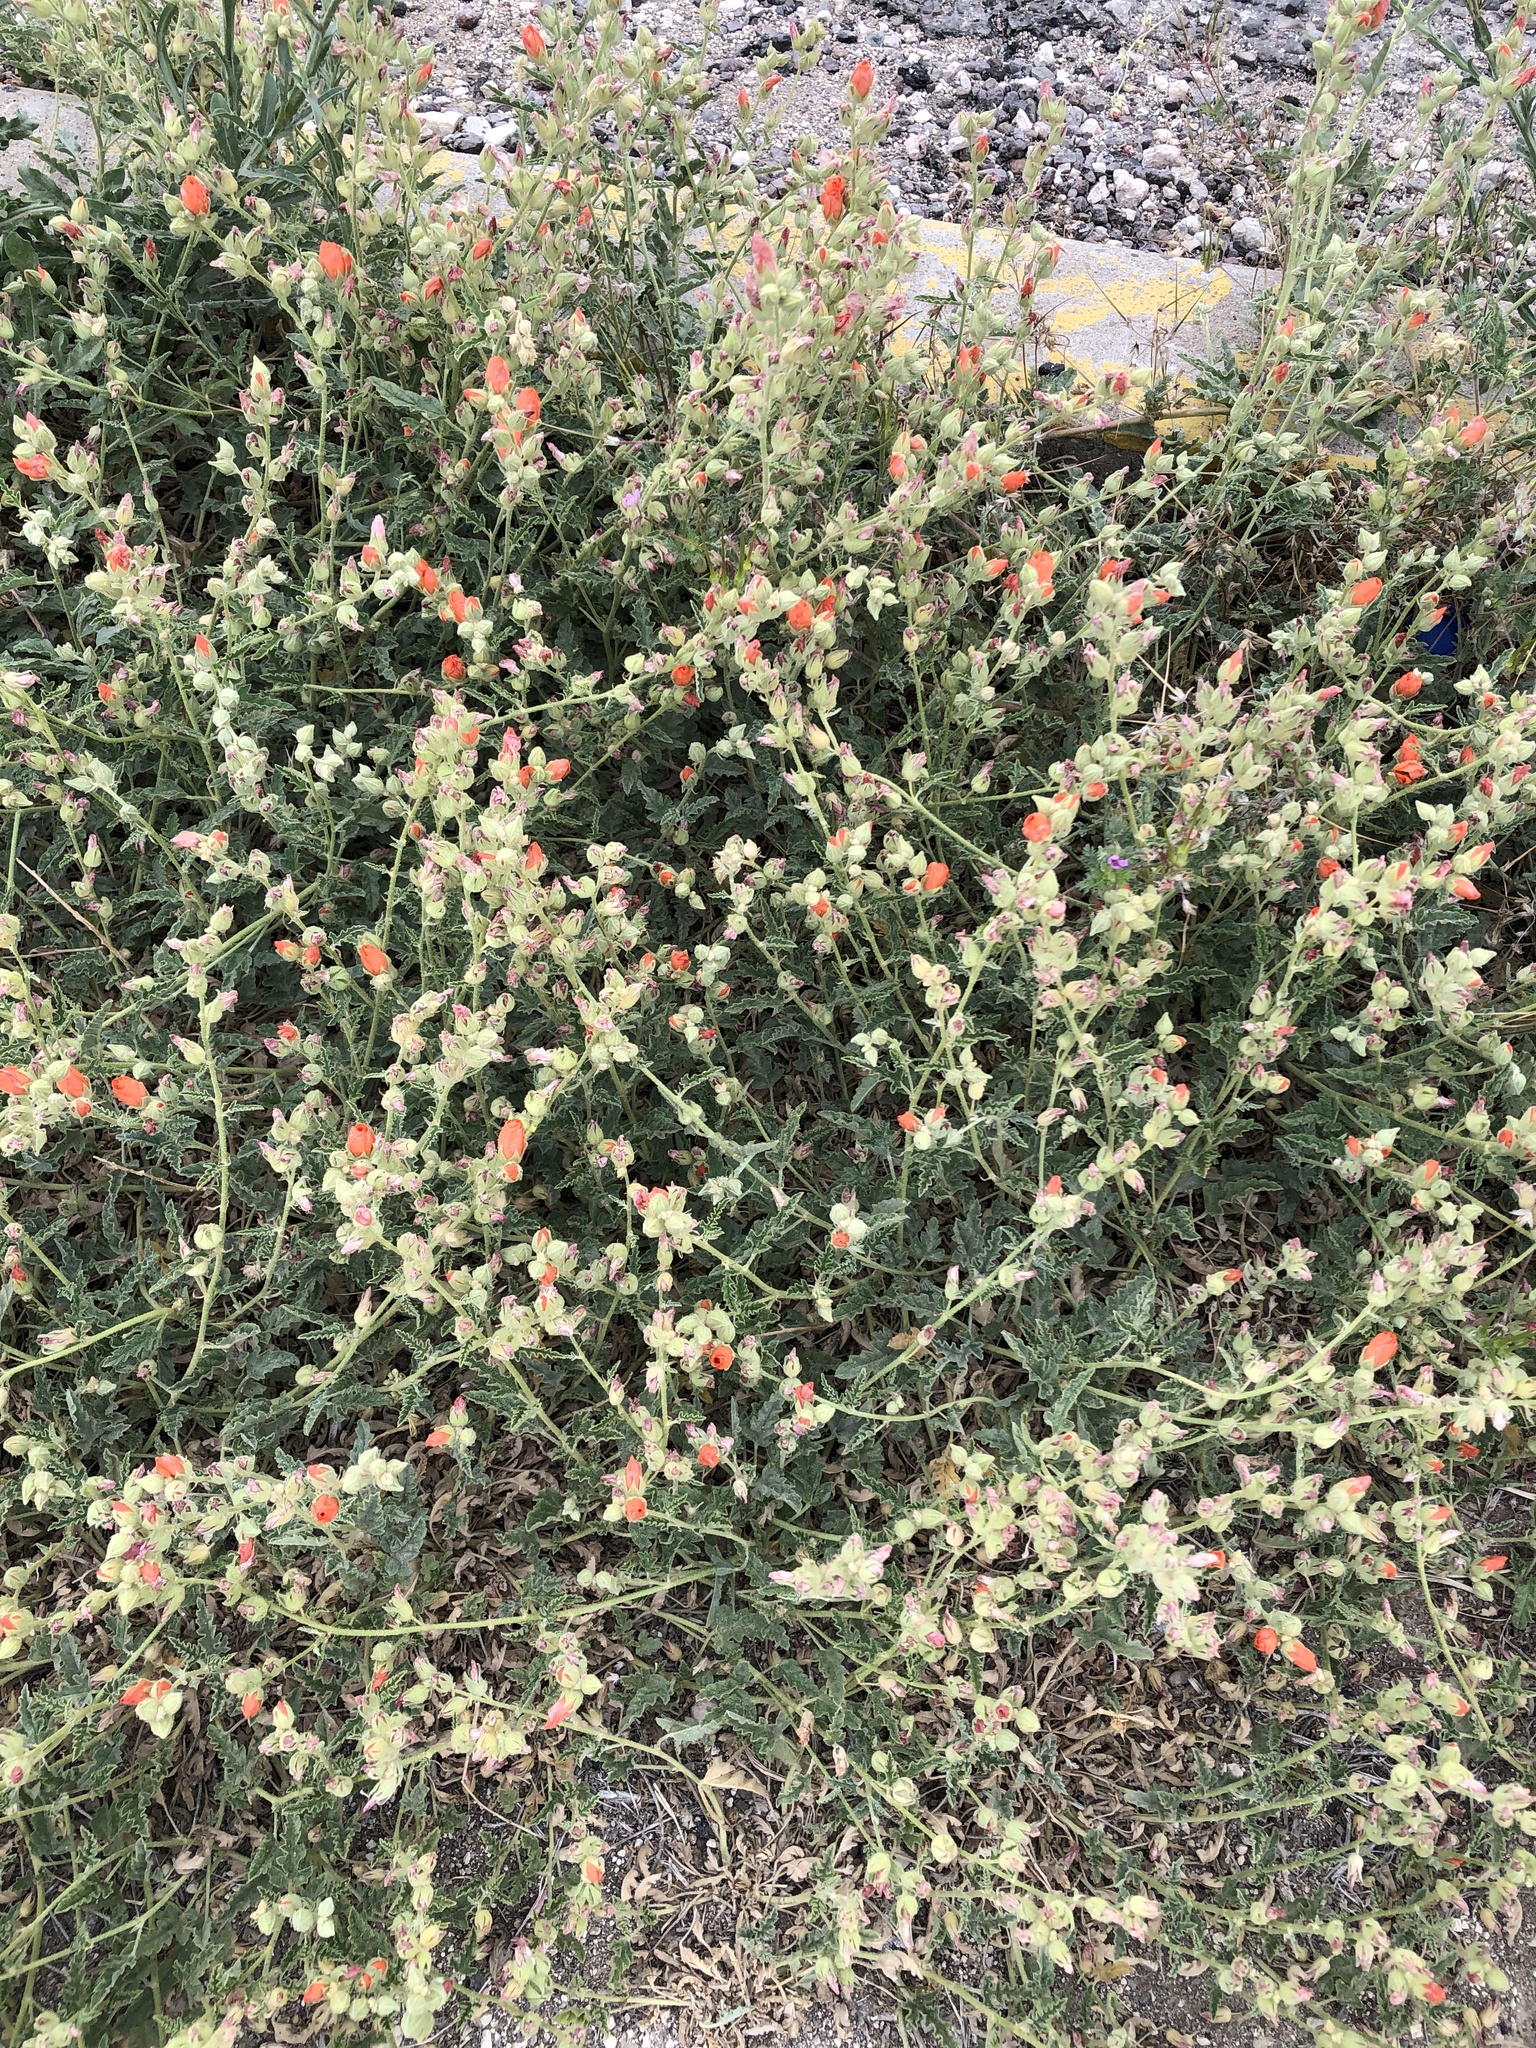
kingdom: Plantae
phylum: Tracheophyta
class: Magnoliopsida
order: Malvales
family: Malvaceae
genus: Sphaeralcea
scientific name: Sphaeralcea hastulata
